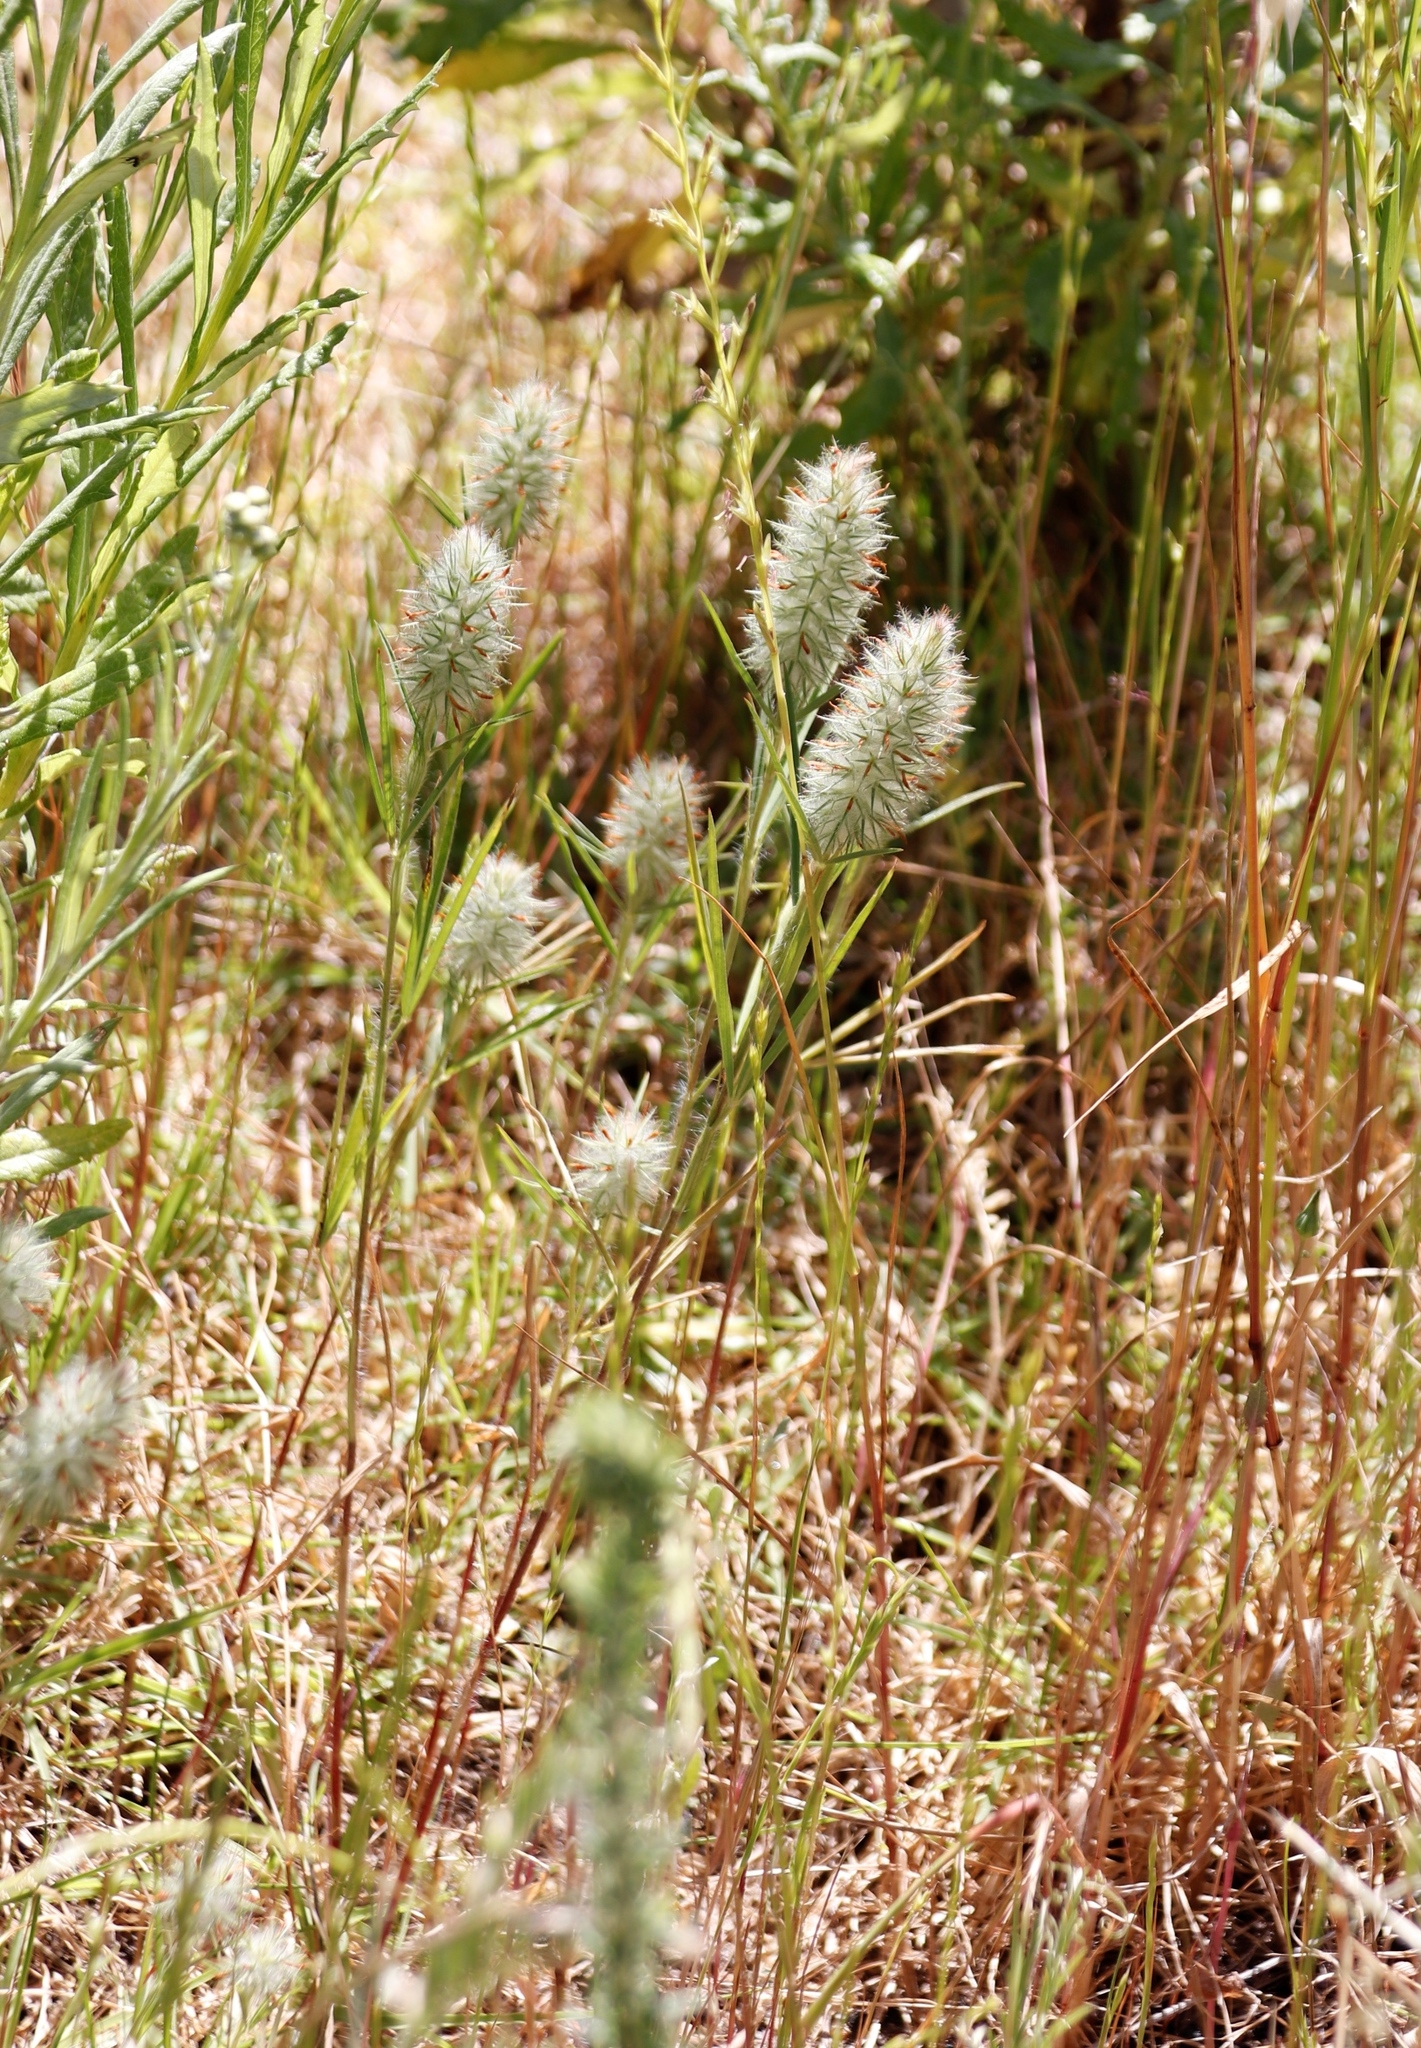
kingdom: Plantae
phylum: Tracheophyta
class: Magnoliopsida
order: Fabales
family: Fabaceae
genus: Trifolium
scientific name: Trifolium angustifolium
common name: Narrow clover
